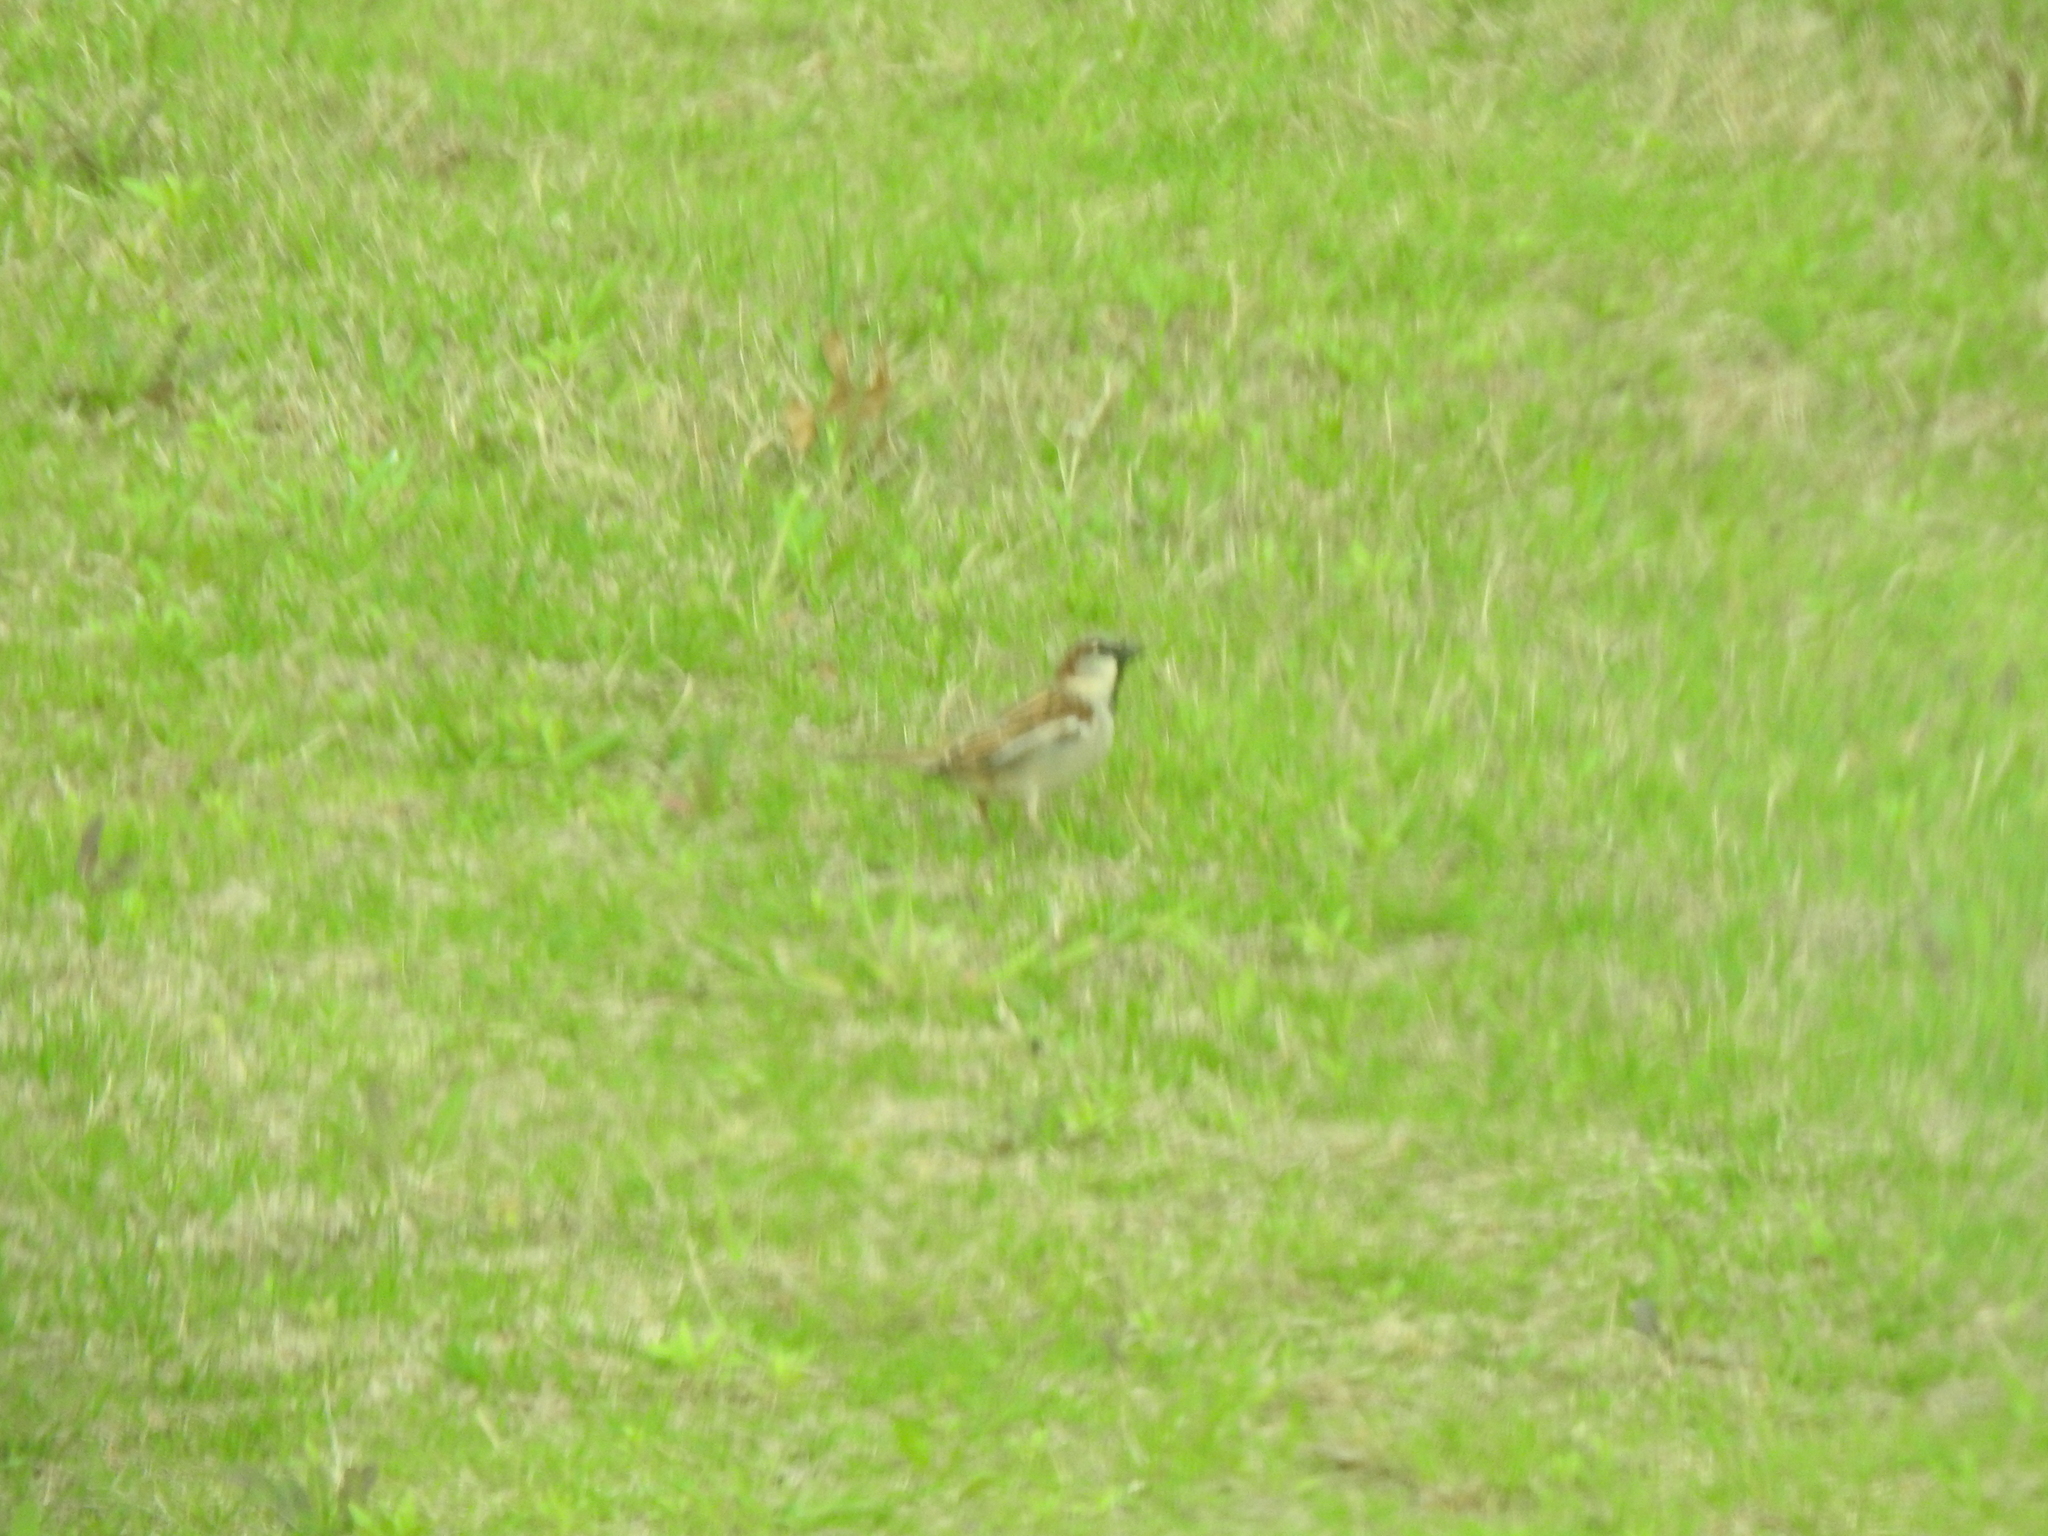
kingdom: Animalia
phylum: Chordata
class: Aves
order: Passeriformes
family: Passeridae
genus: Passer
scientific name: Passer domesticus
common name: House sparrow
